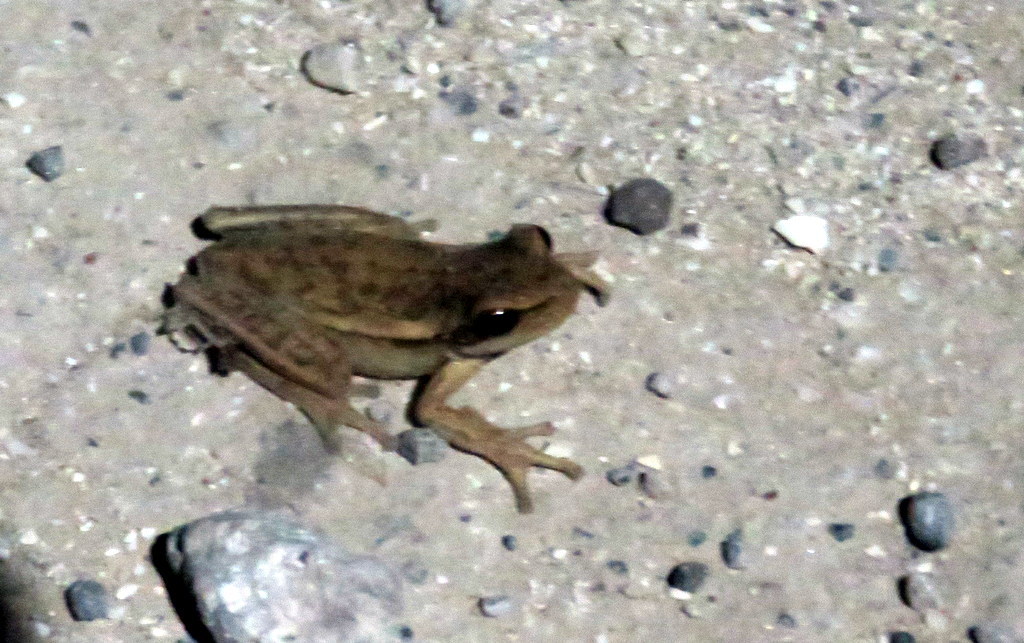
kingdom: Animalia
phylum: Chordata
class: Amphibia
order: Anura
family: Hylidae
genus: Boana
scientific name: Boana pulchella
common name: Montevideo treefrog
